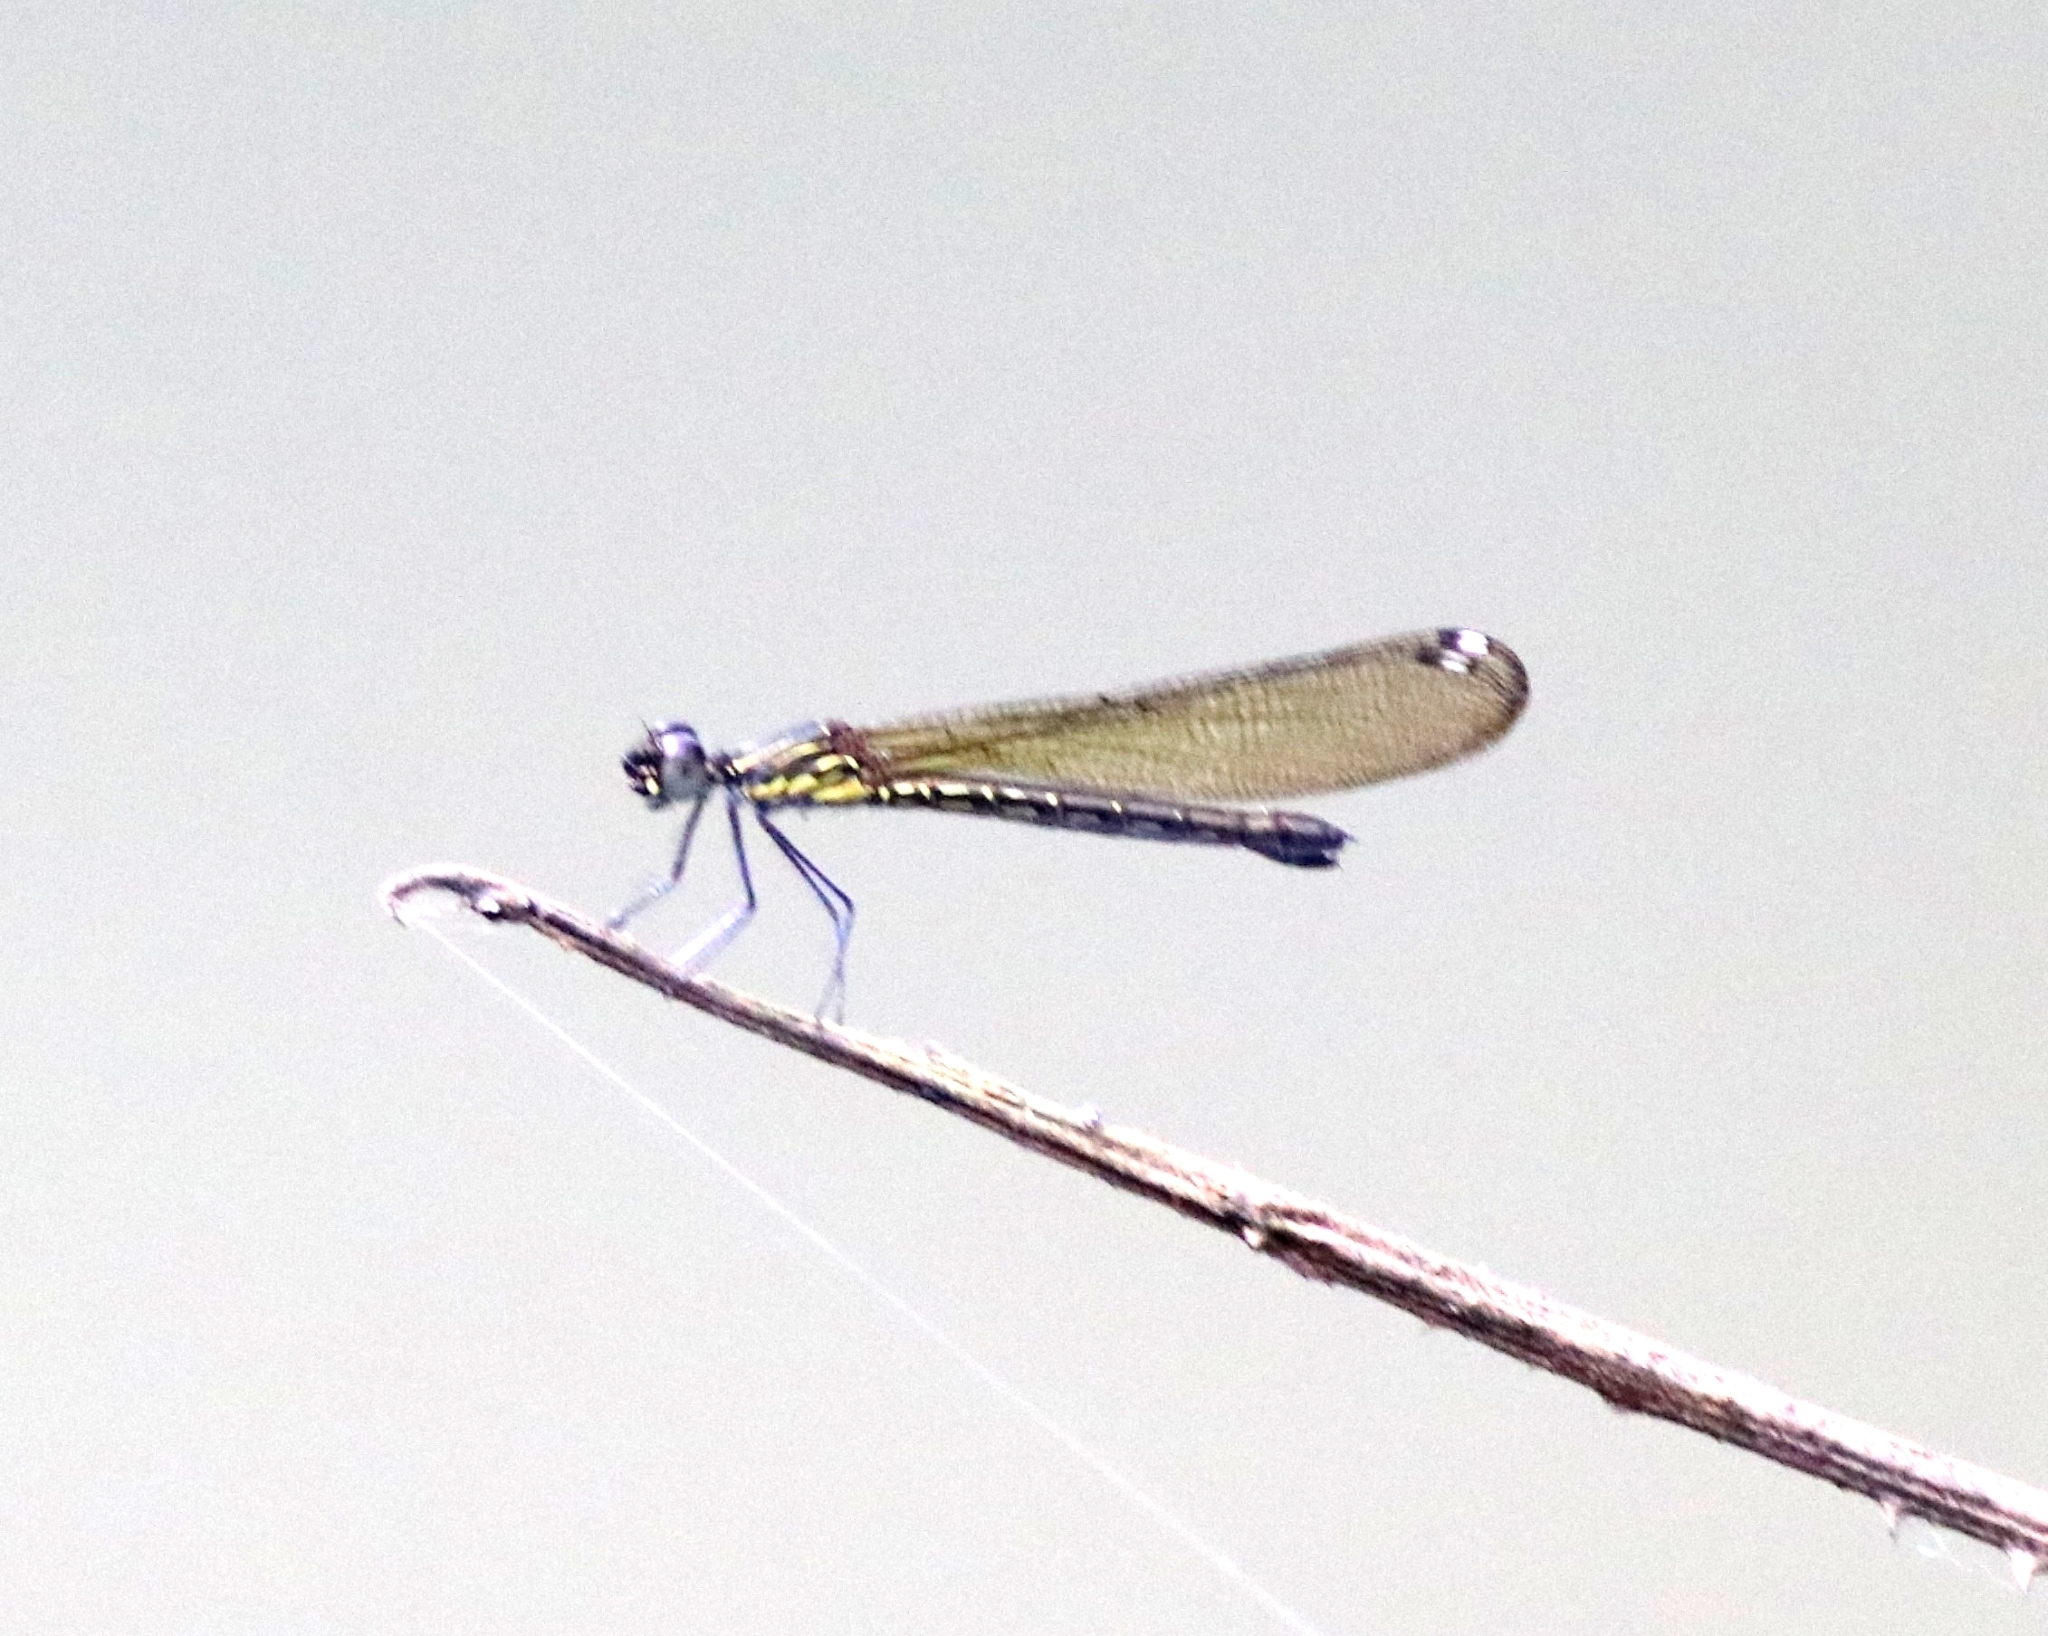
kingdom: Animalia
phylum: Arthropoda
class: Insecta
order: Odonata
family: Chlorocyphidae
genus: Heliocypha
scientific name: Heliocypha bisignata
